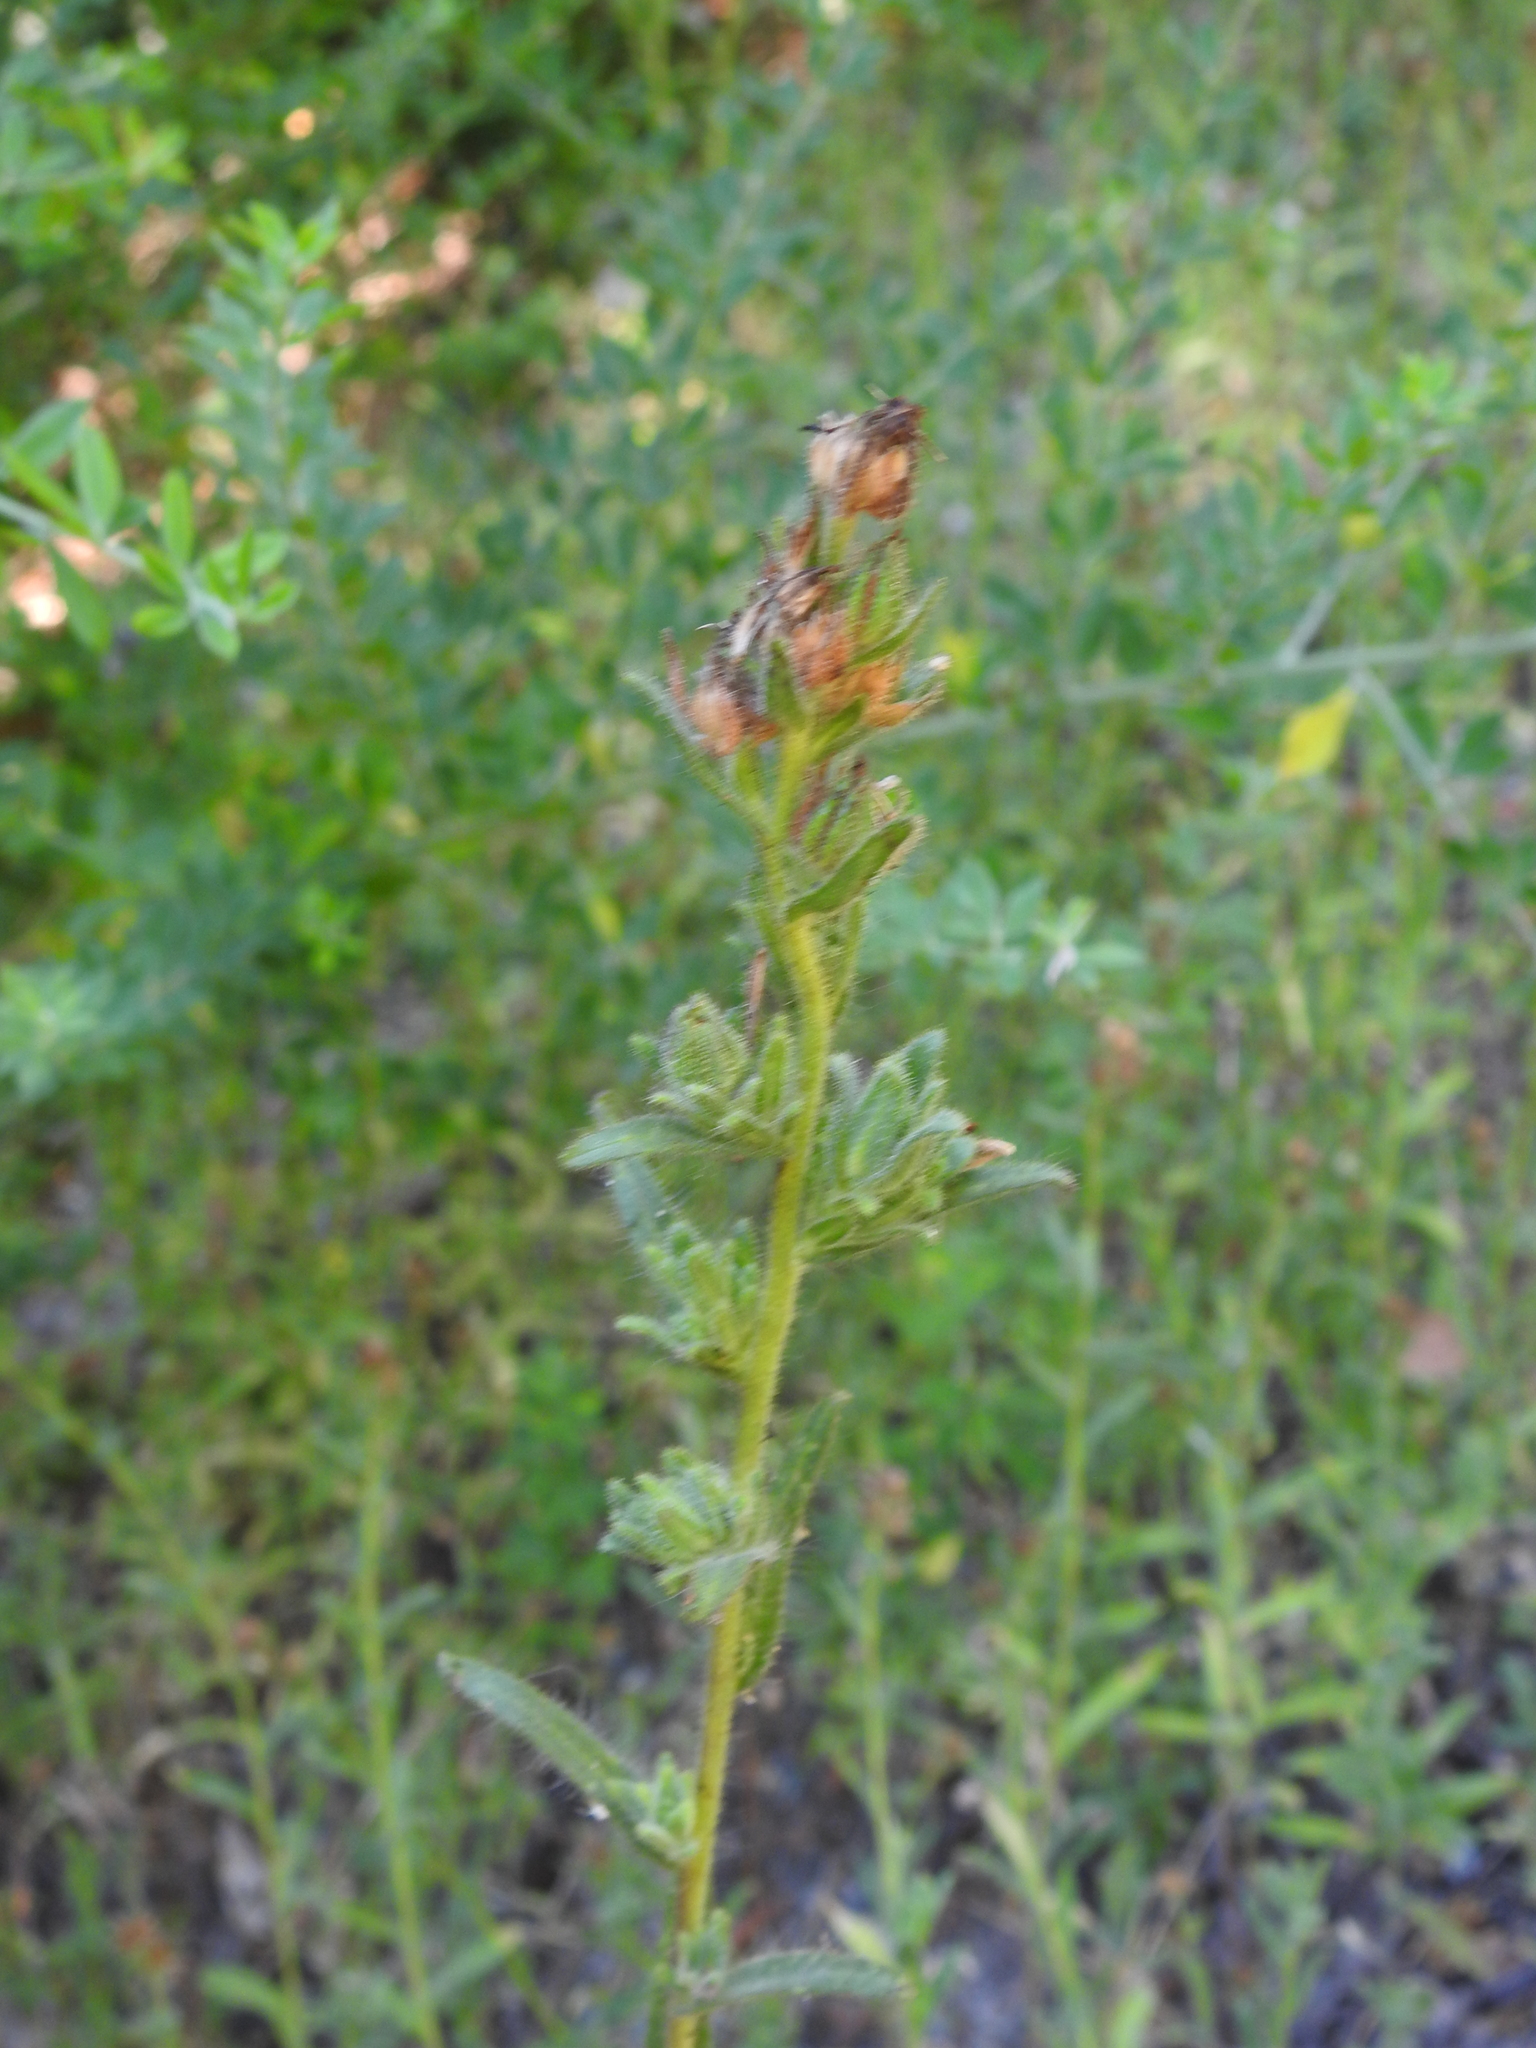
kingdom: Plantae
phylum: Tracheophyta
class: Magnoliopsida
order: Asterales
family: Asteraceae
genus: Madia
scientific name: Madia sativa
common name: Coast tarweed
